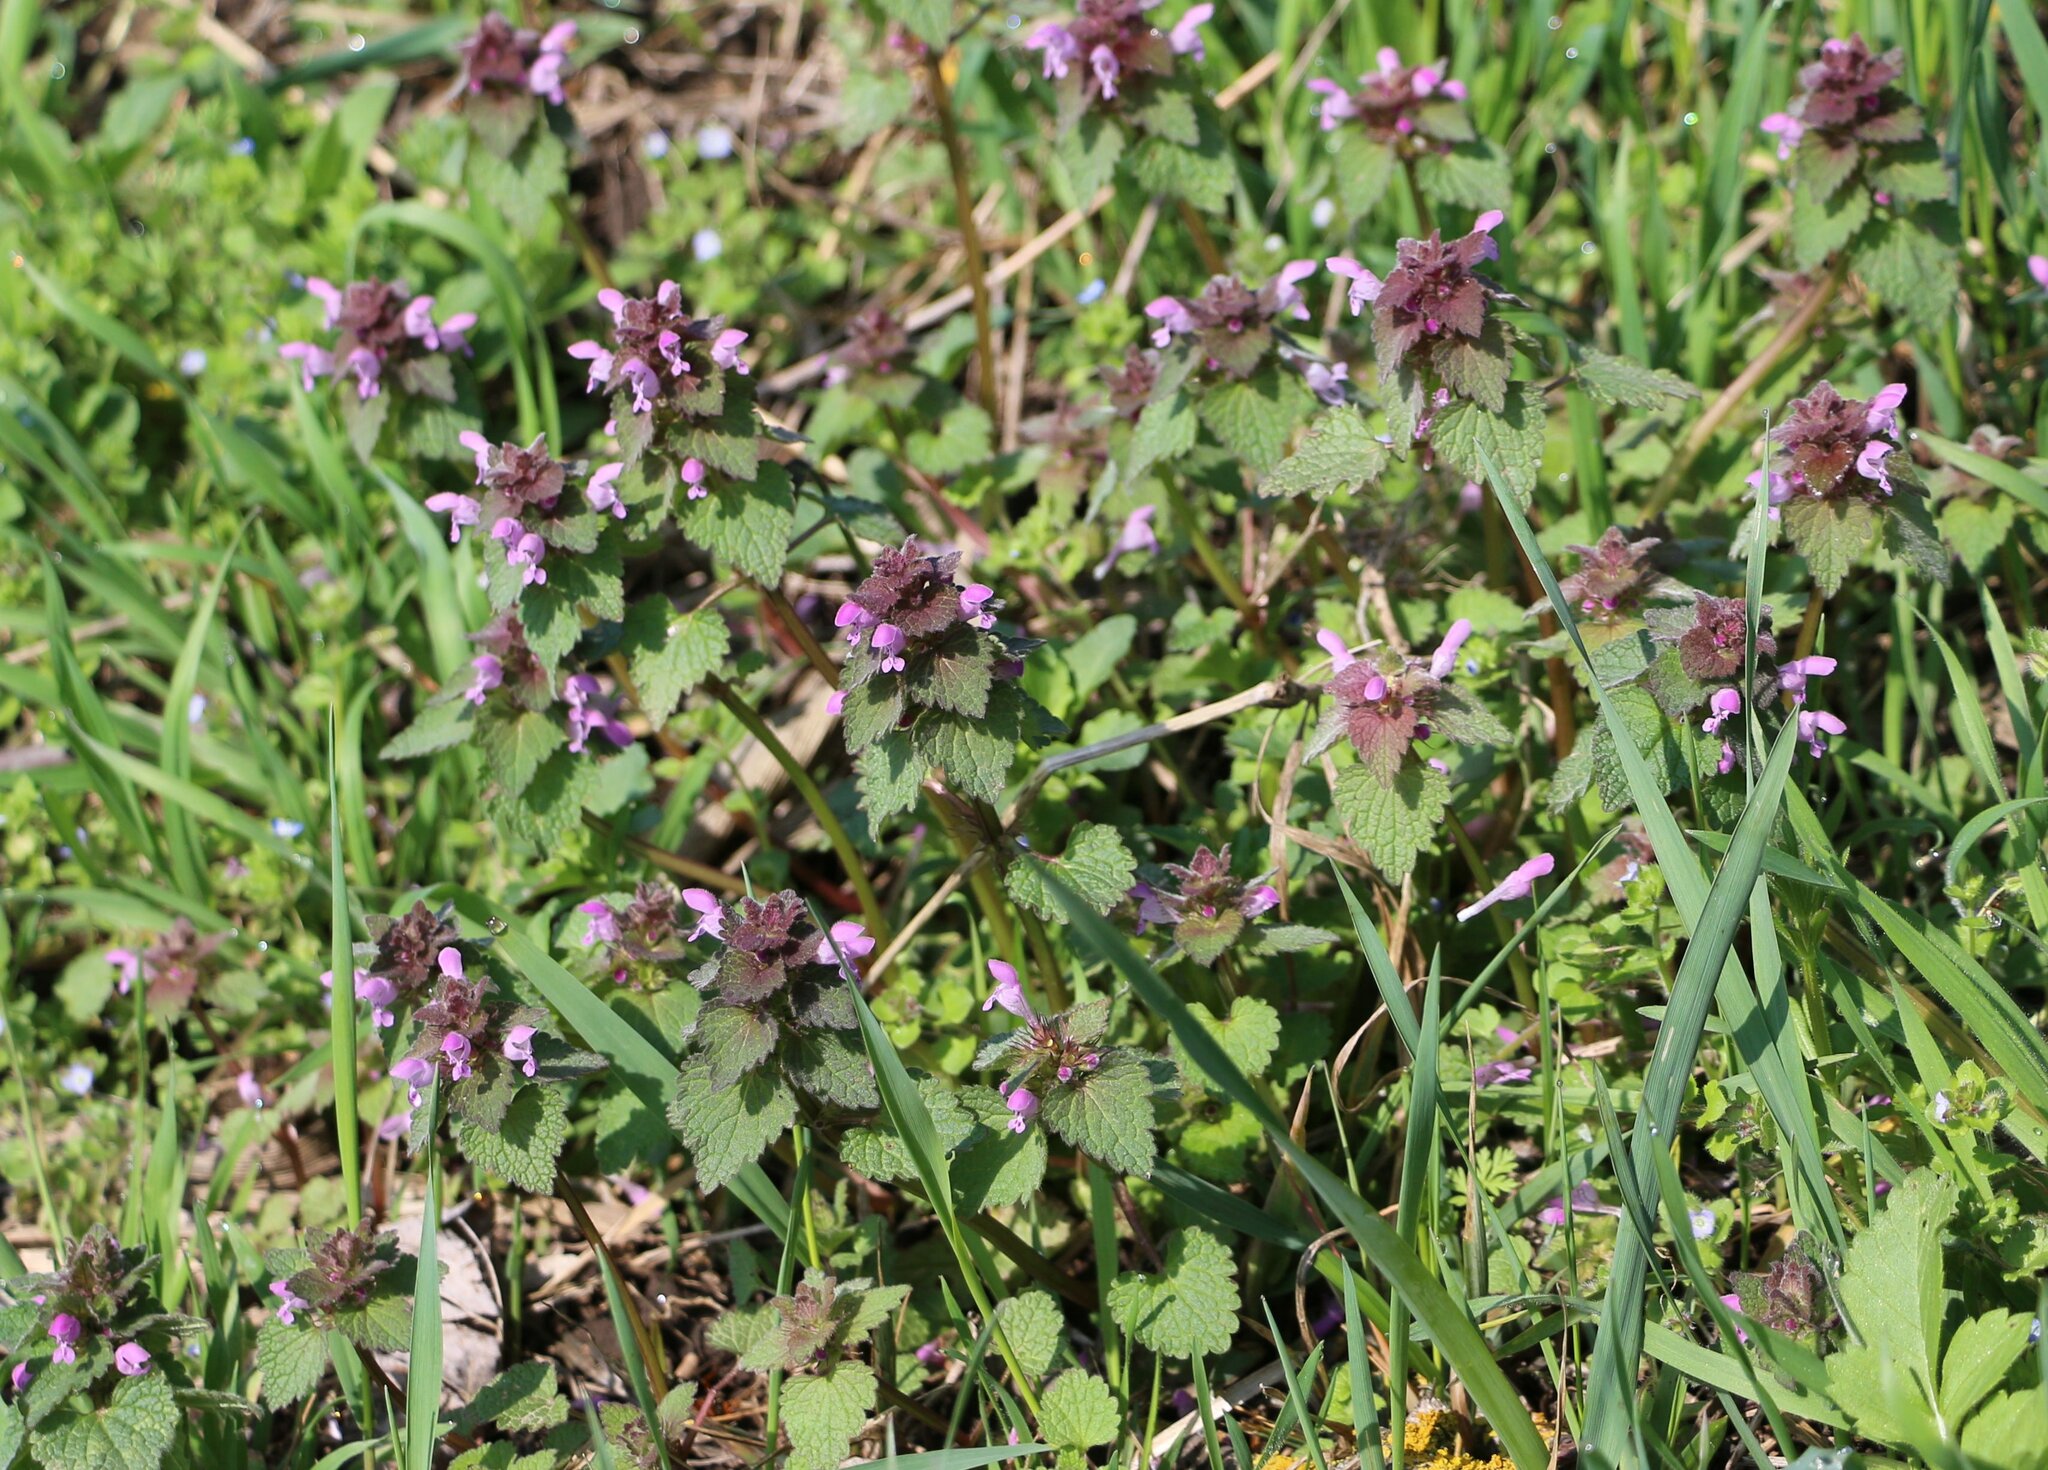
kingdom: Plantae
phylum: Tracheophyta
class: Magnoliopsida
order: Lamiales
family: Lamiaceae
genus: Lamium
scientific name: Lamium purpureum
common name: Red dead-nettle
